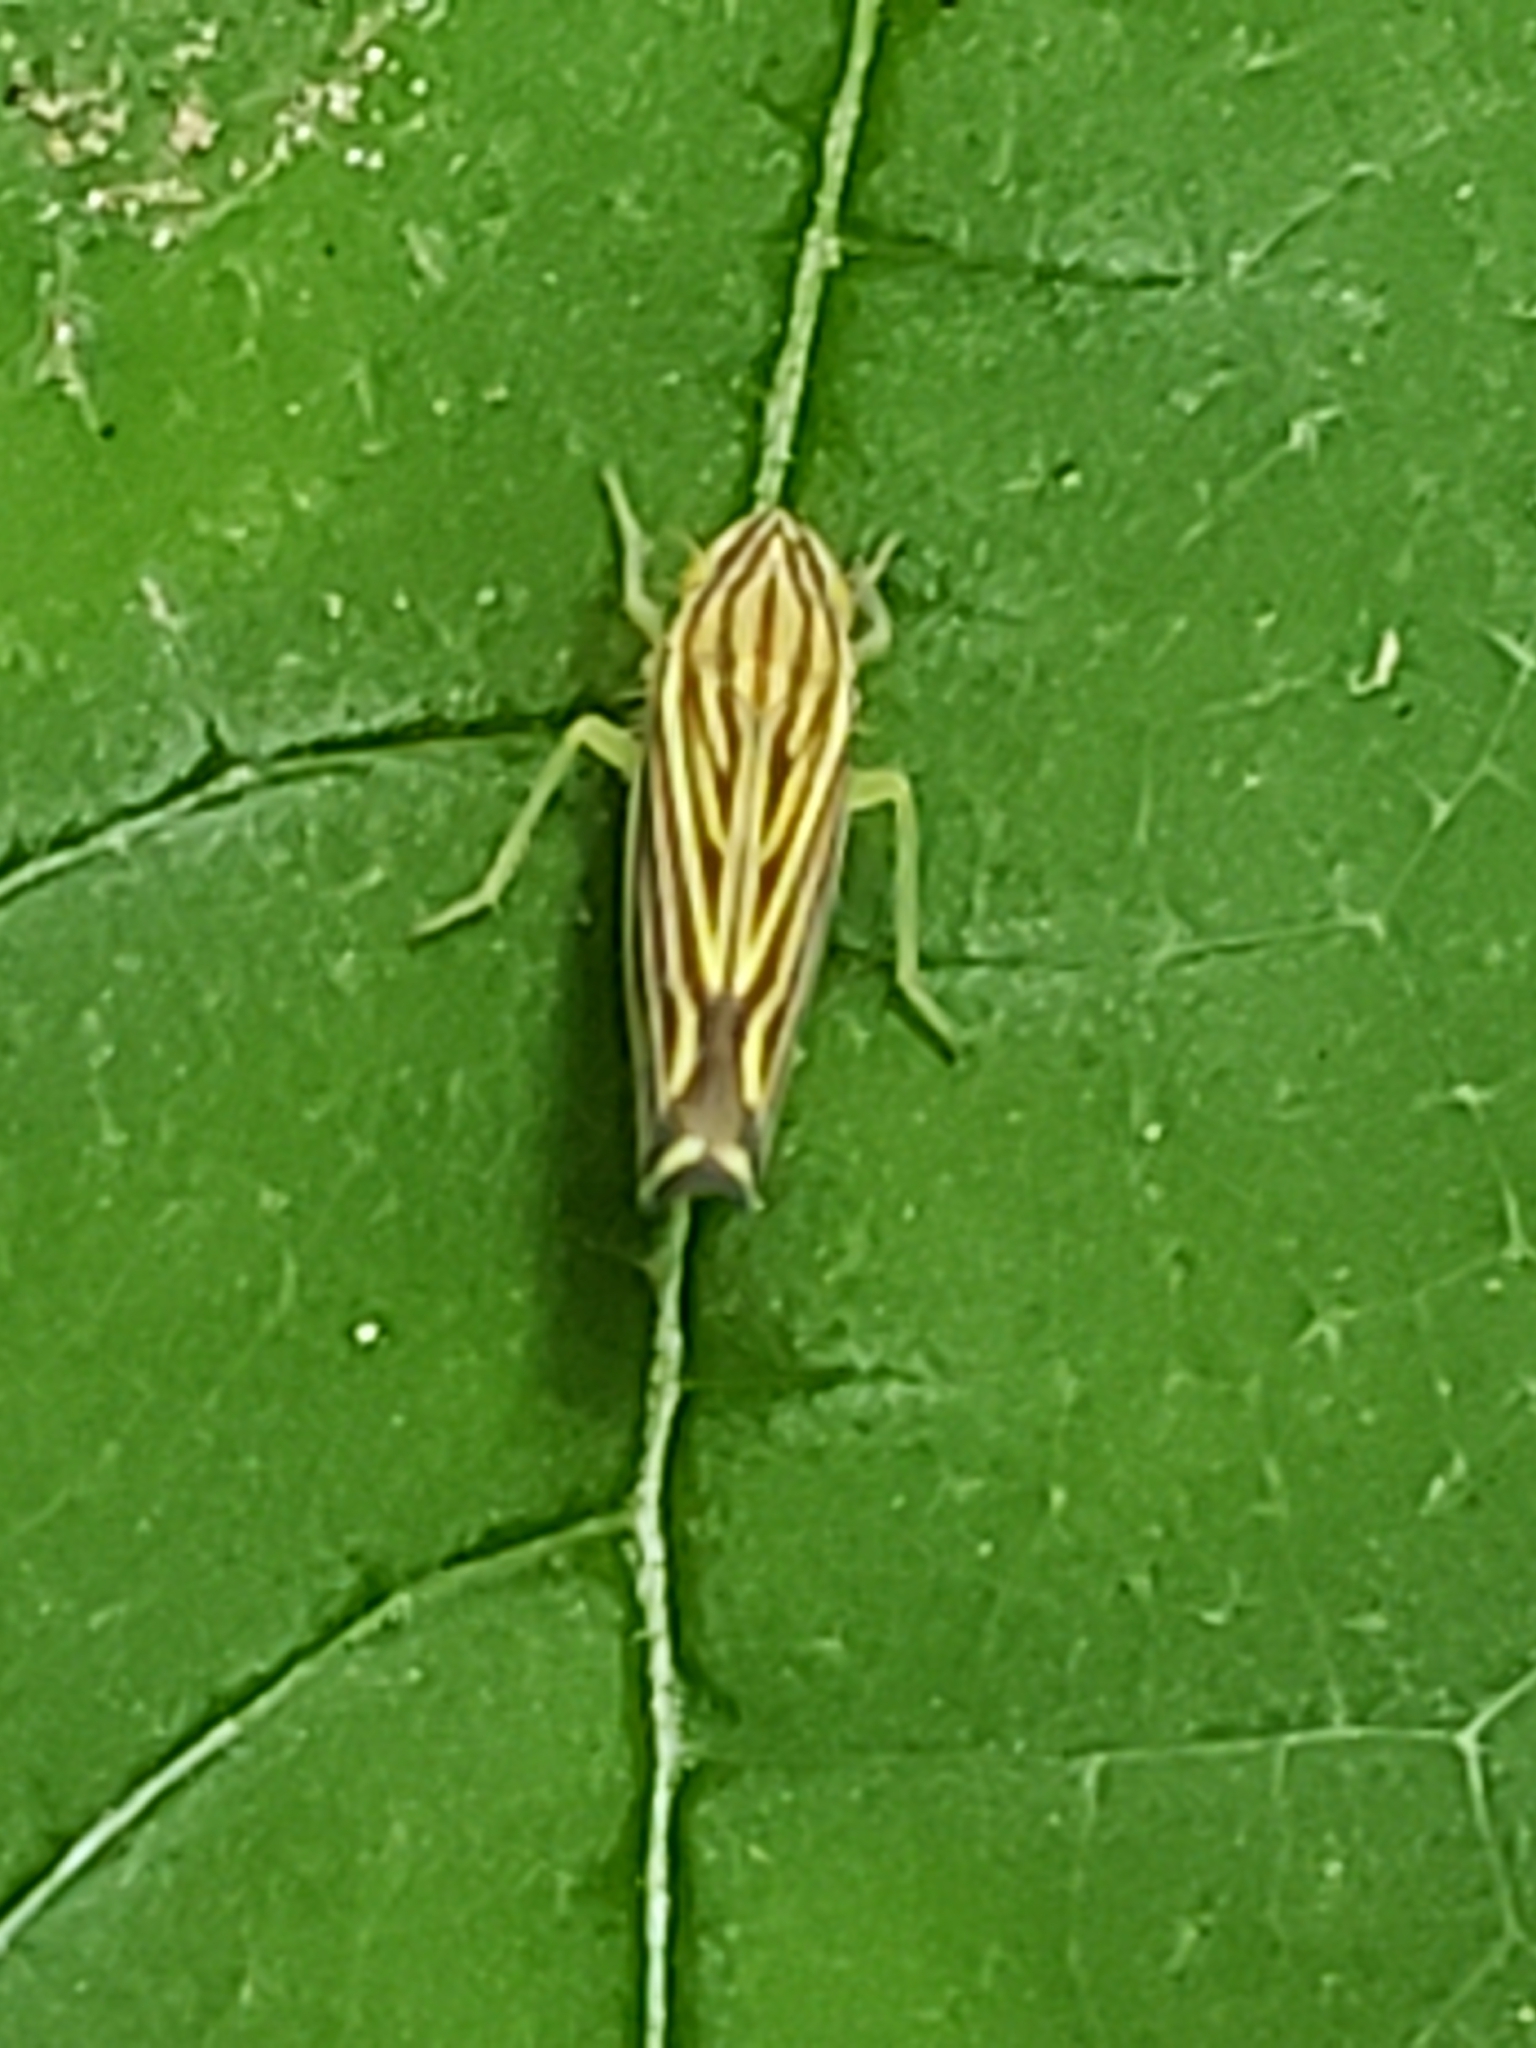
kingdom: Animalia
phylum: Arthropoda
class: Insecta
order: Hemiptera
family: Cicadellidae
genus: Sibovia
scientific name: Sibovia occatoria
